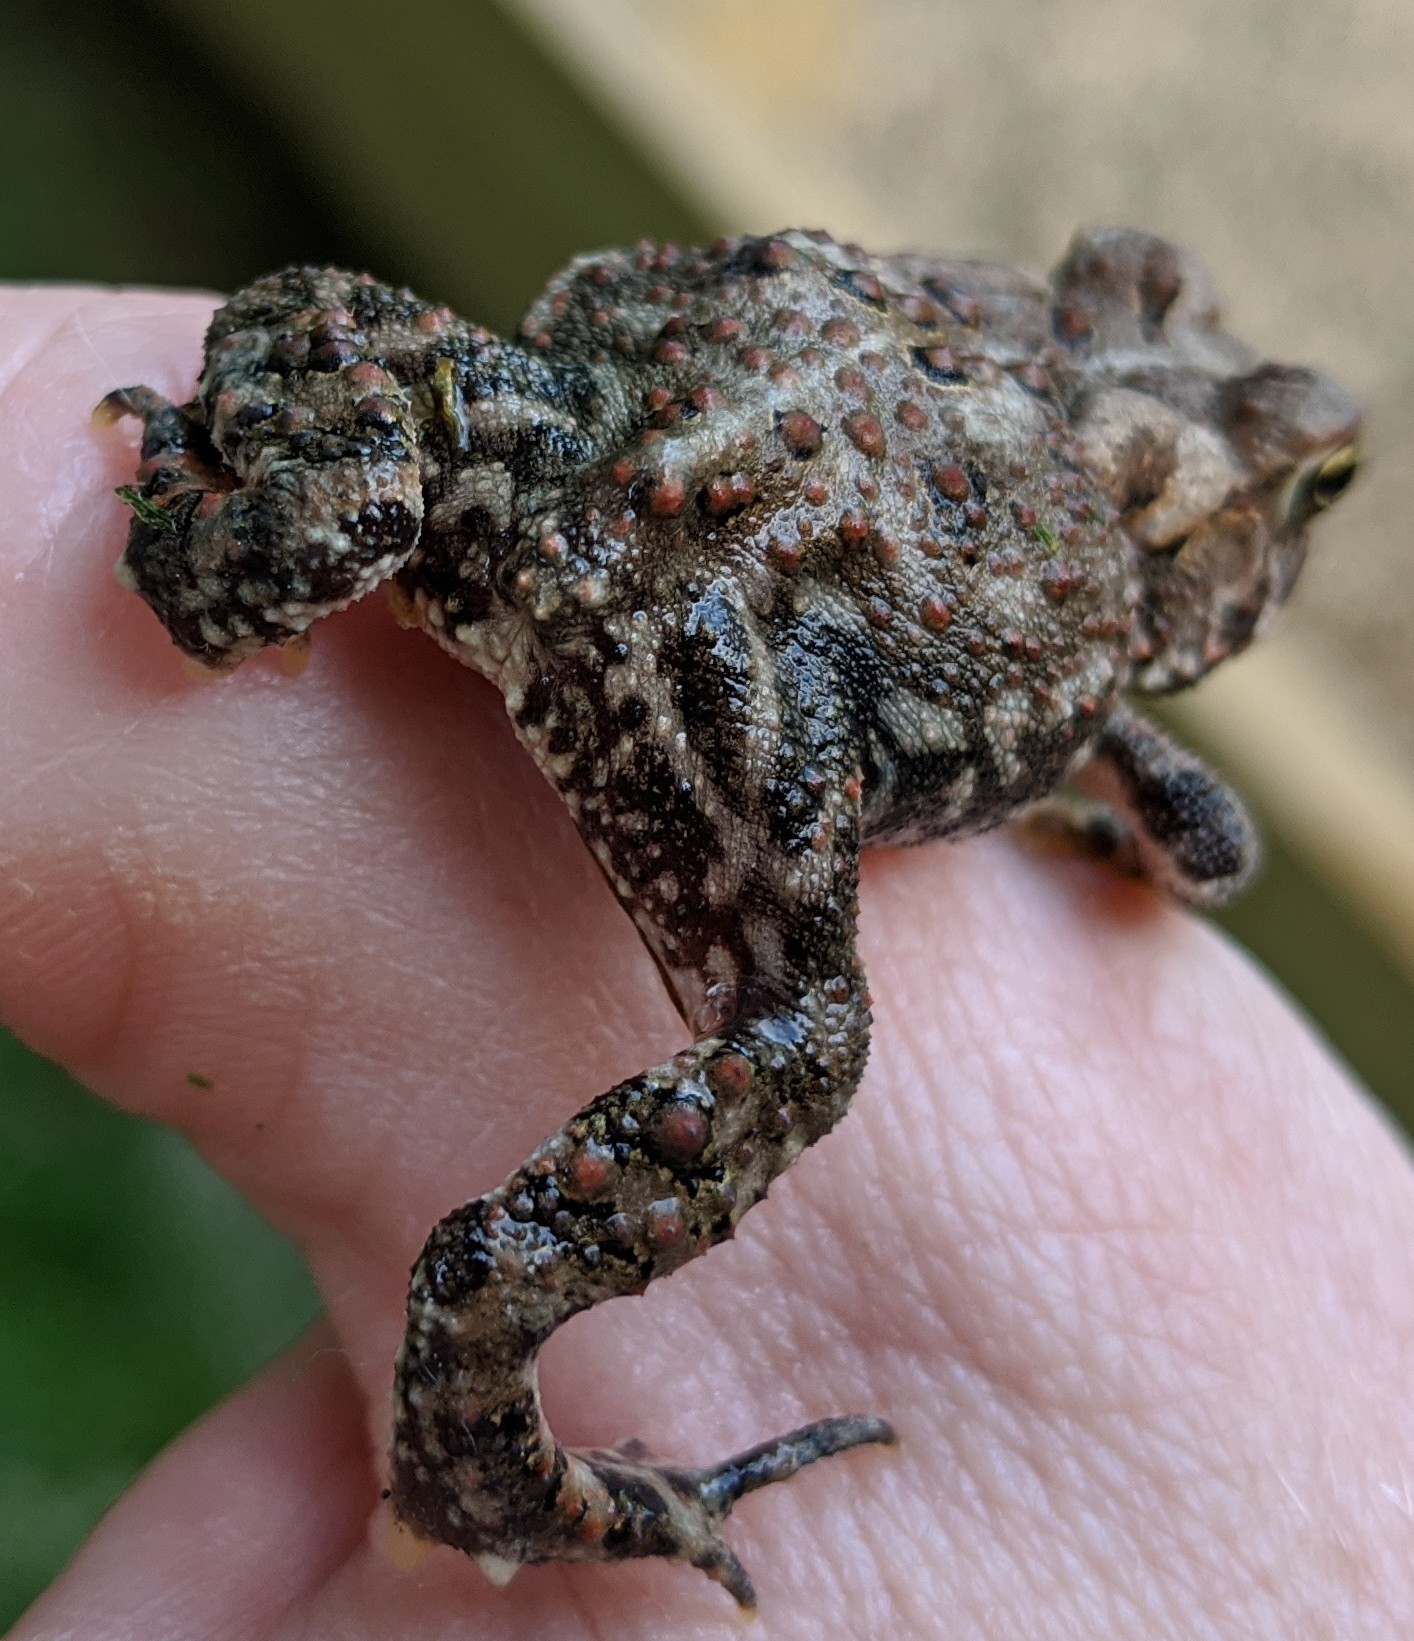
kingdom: Animalia
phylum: Chordata
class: Amphibia
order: Anura
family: Bufonidae
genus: Anaxyrus
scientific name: Anaxyrus americanus
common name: American toad
